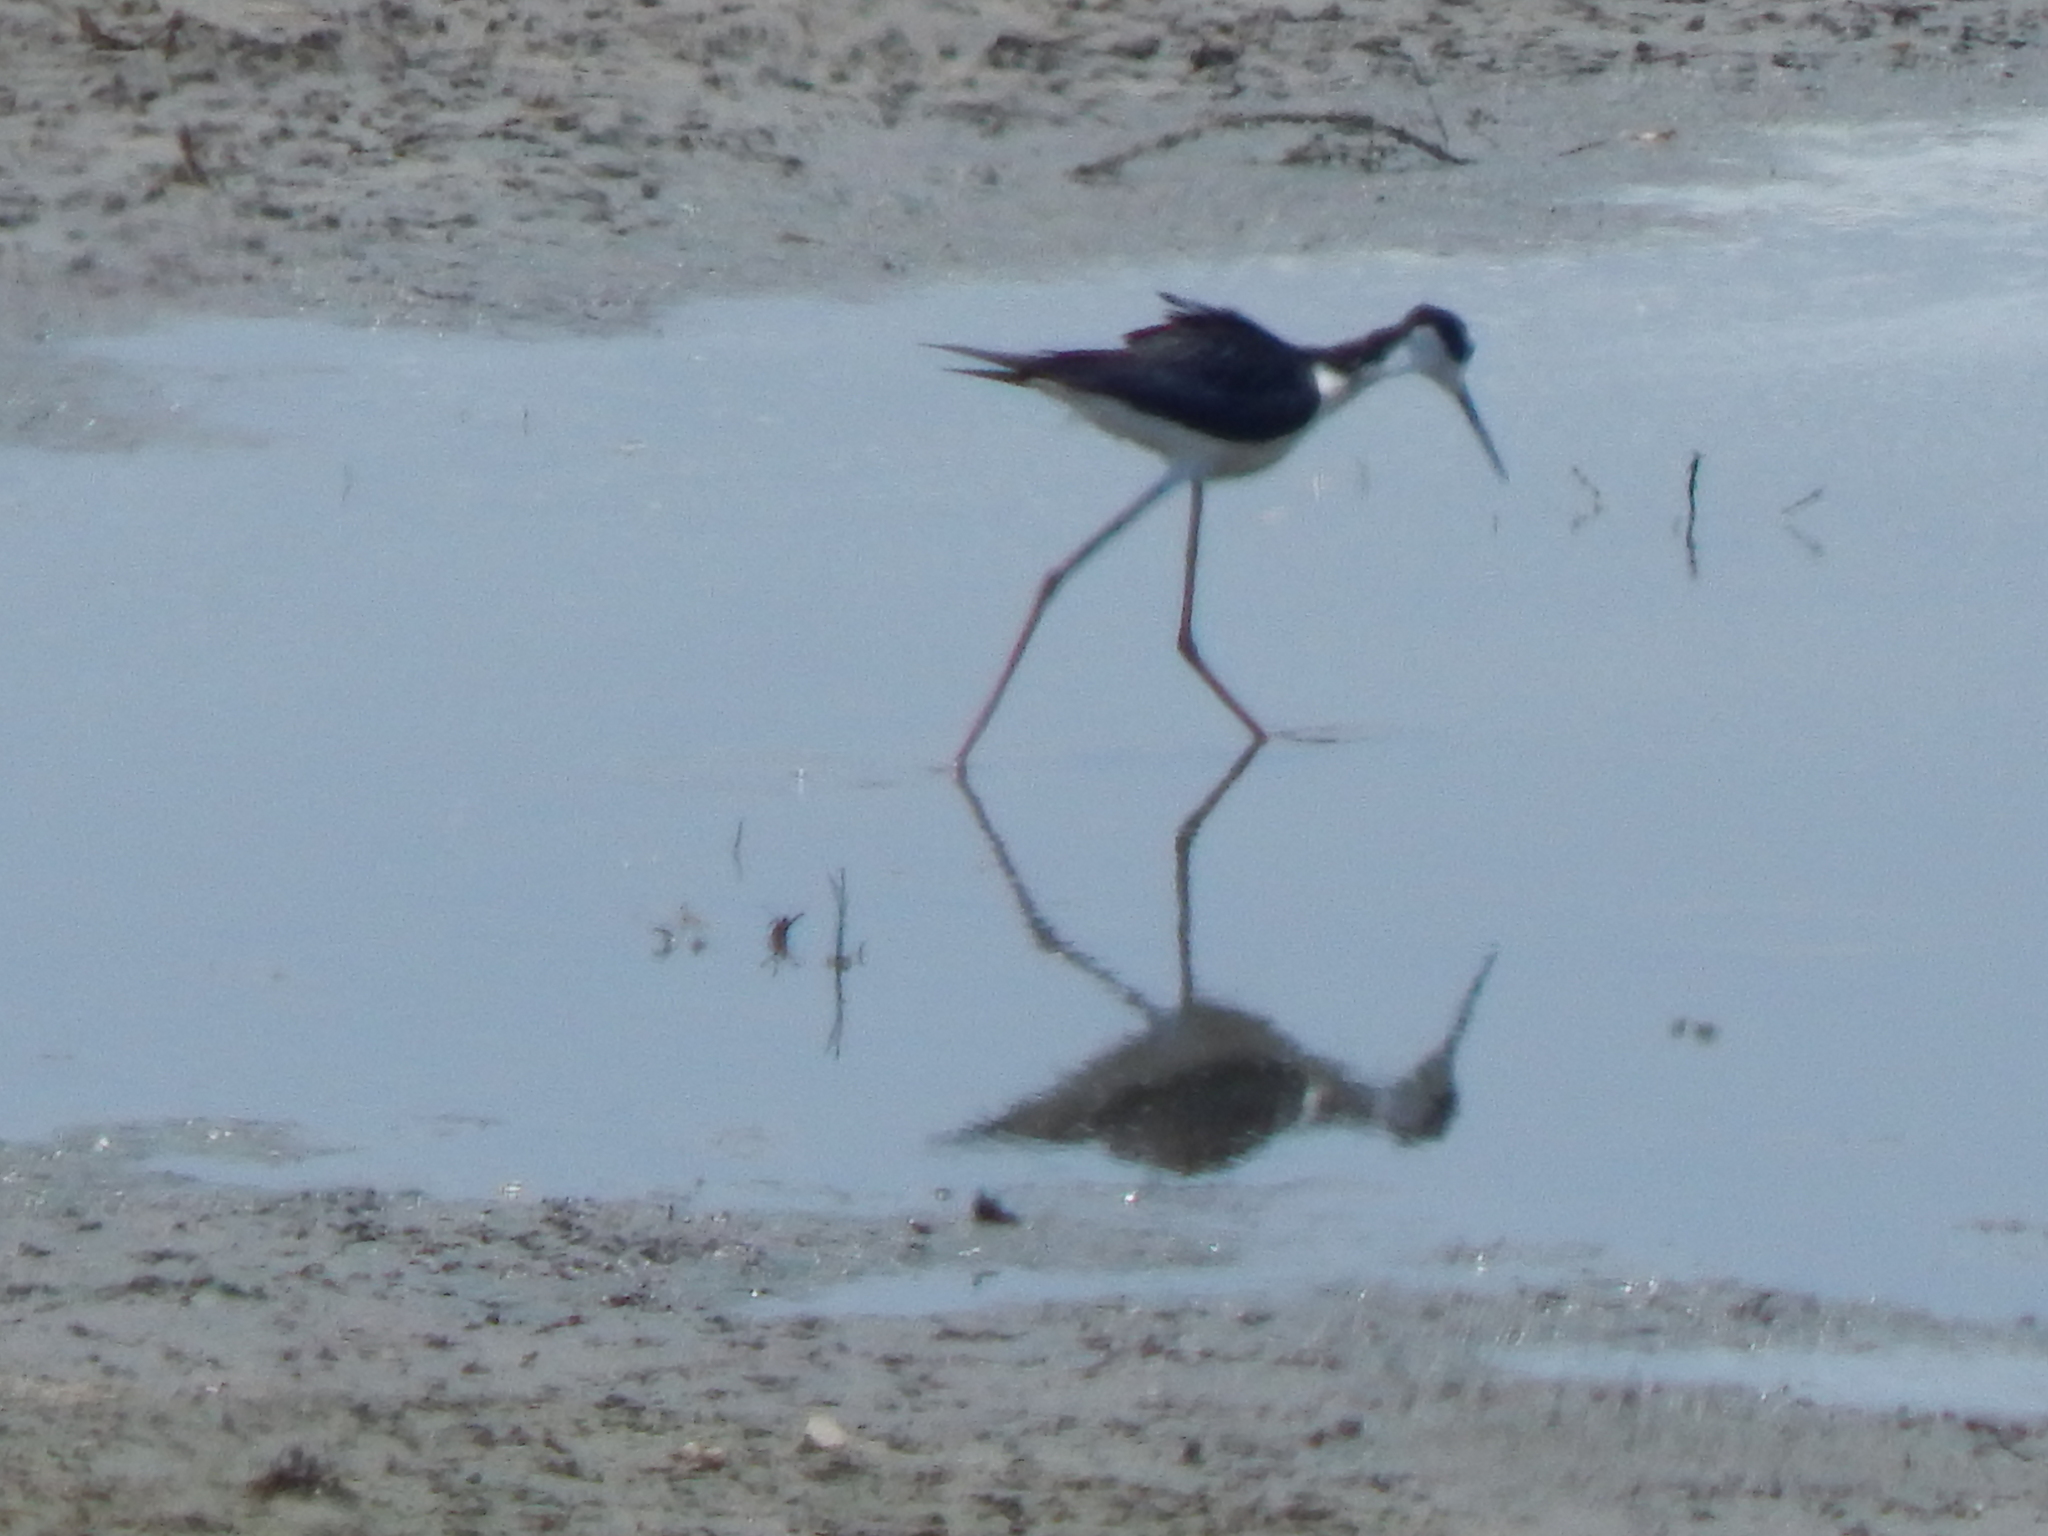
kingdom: Animalia
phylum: Chordata
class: Aves
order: Charadriiformes
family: Recurvirostridae
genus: Himantopus
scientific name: Himantopus mexicanus
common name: Black-necked stilt
